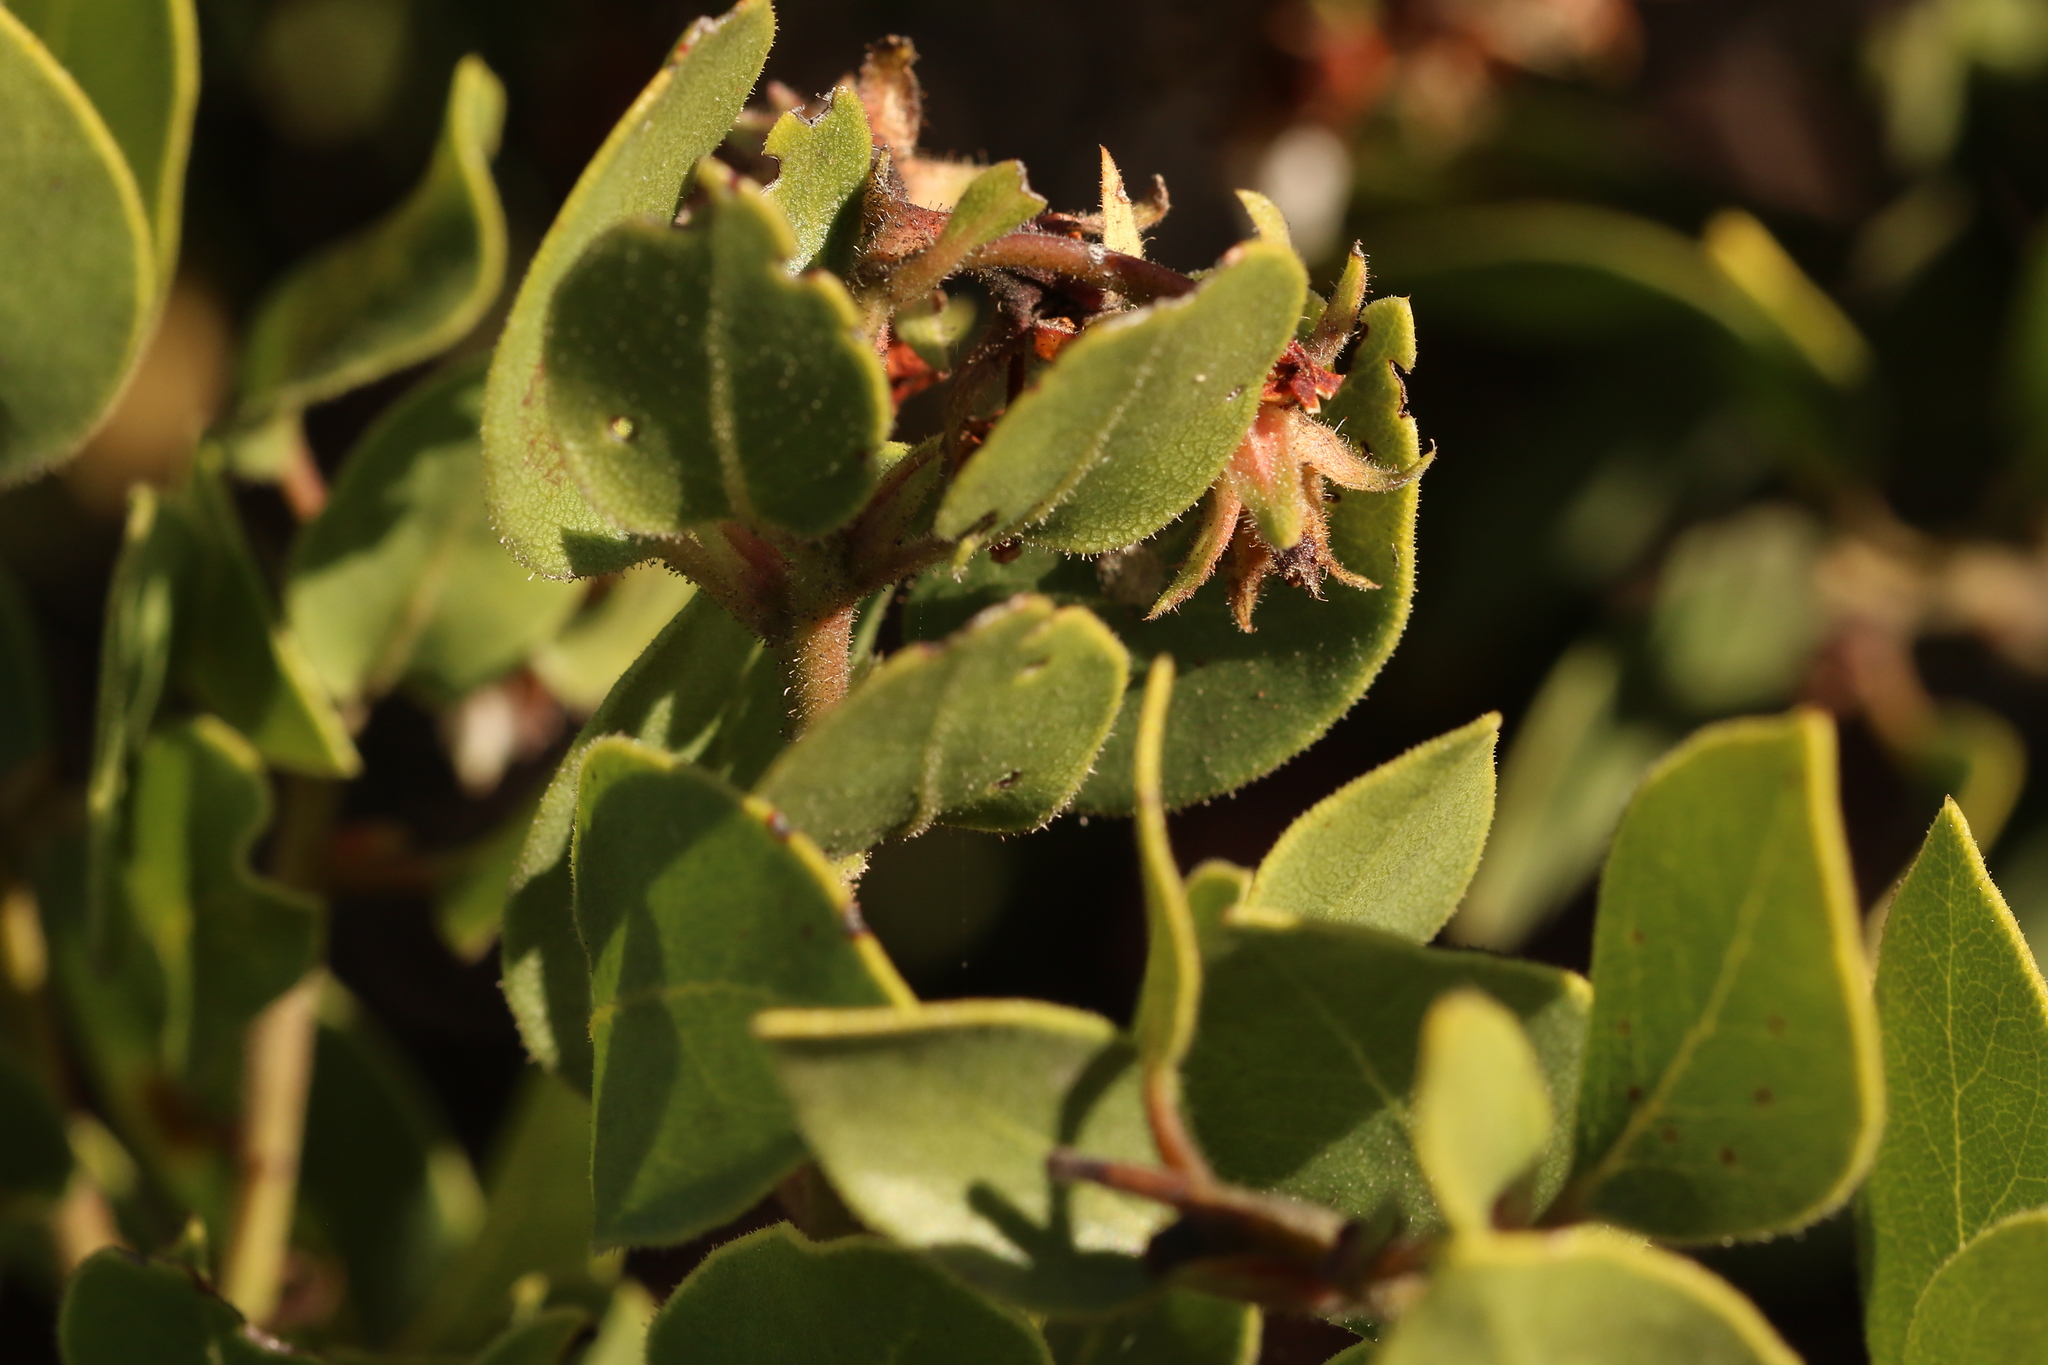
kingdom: Plantae
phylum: Tracheophyta
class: Magnoliopsida
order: Ericales
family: Ericaceae
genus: Arctostaphylos
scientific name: Arctostaphylos montereyensis
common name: Monterey manzanita
